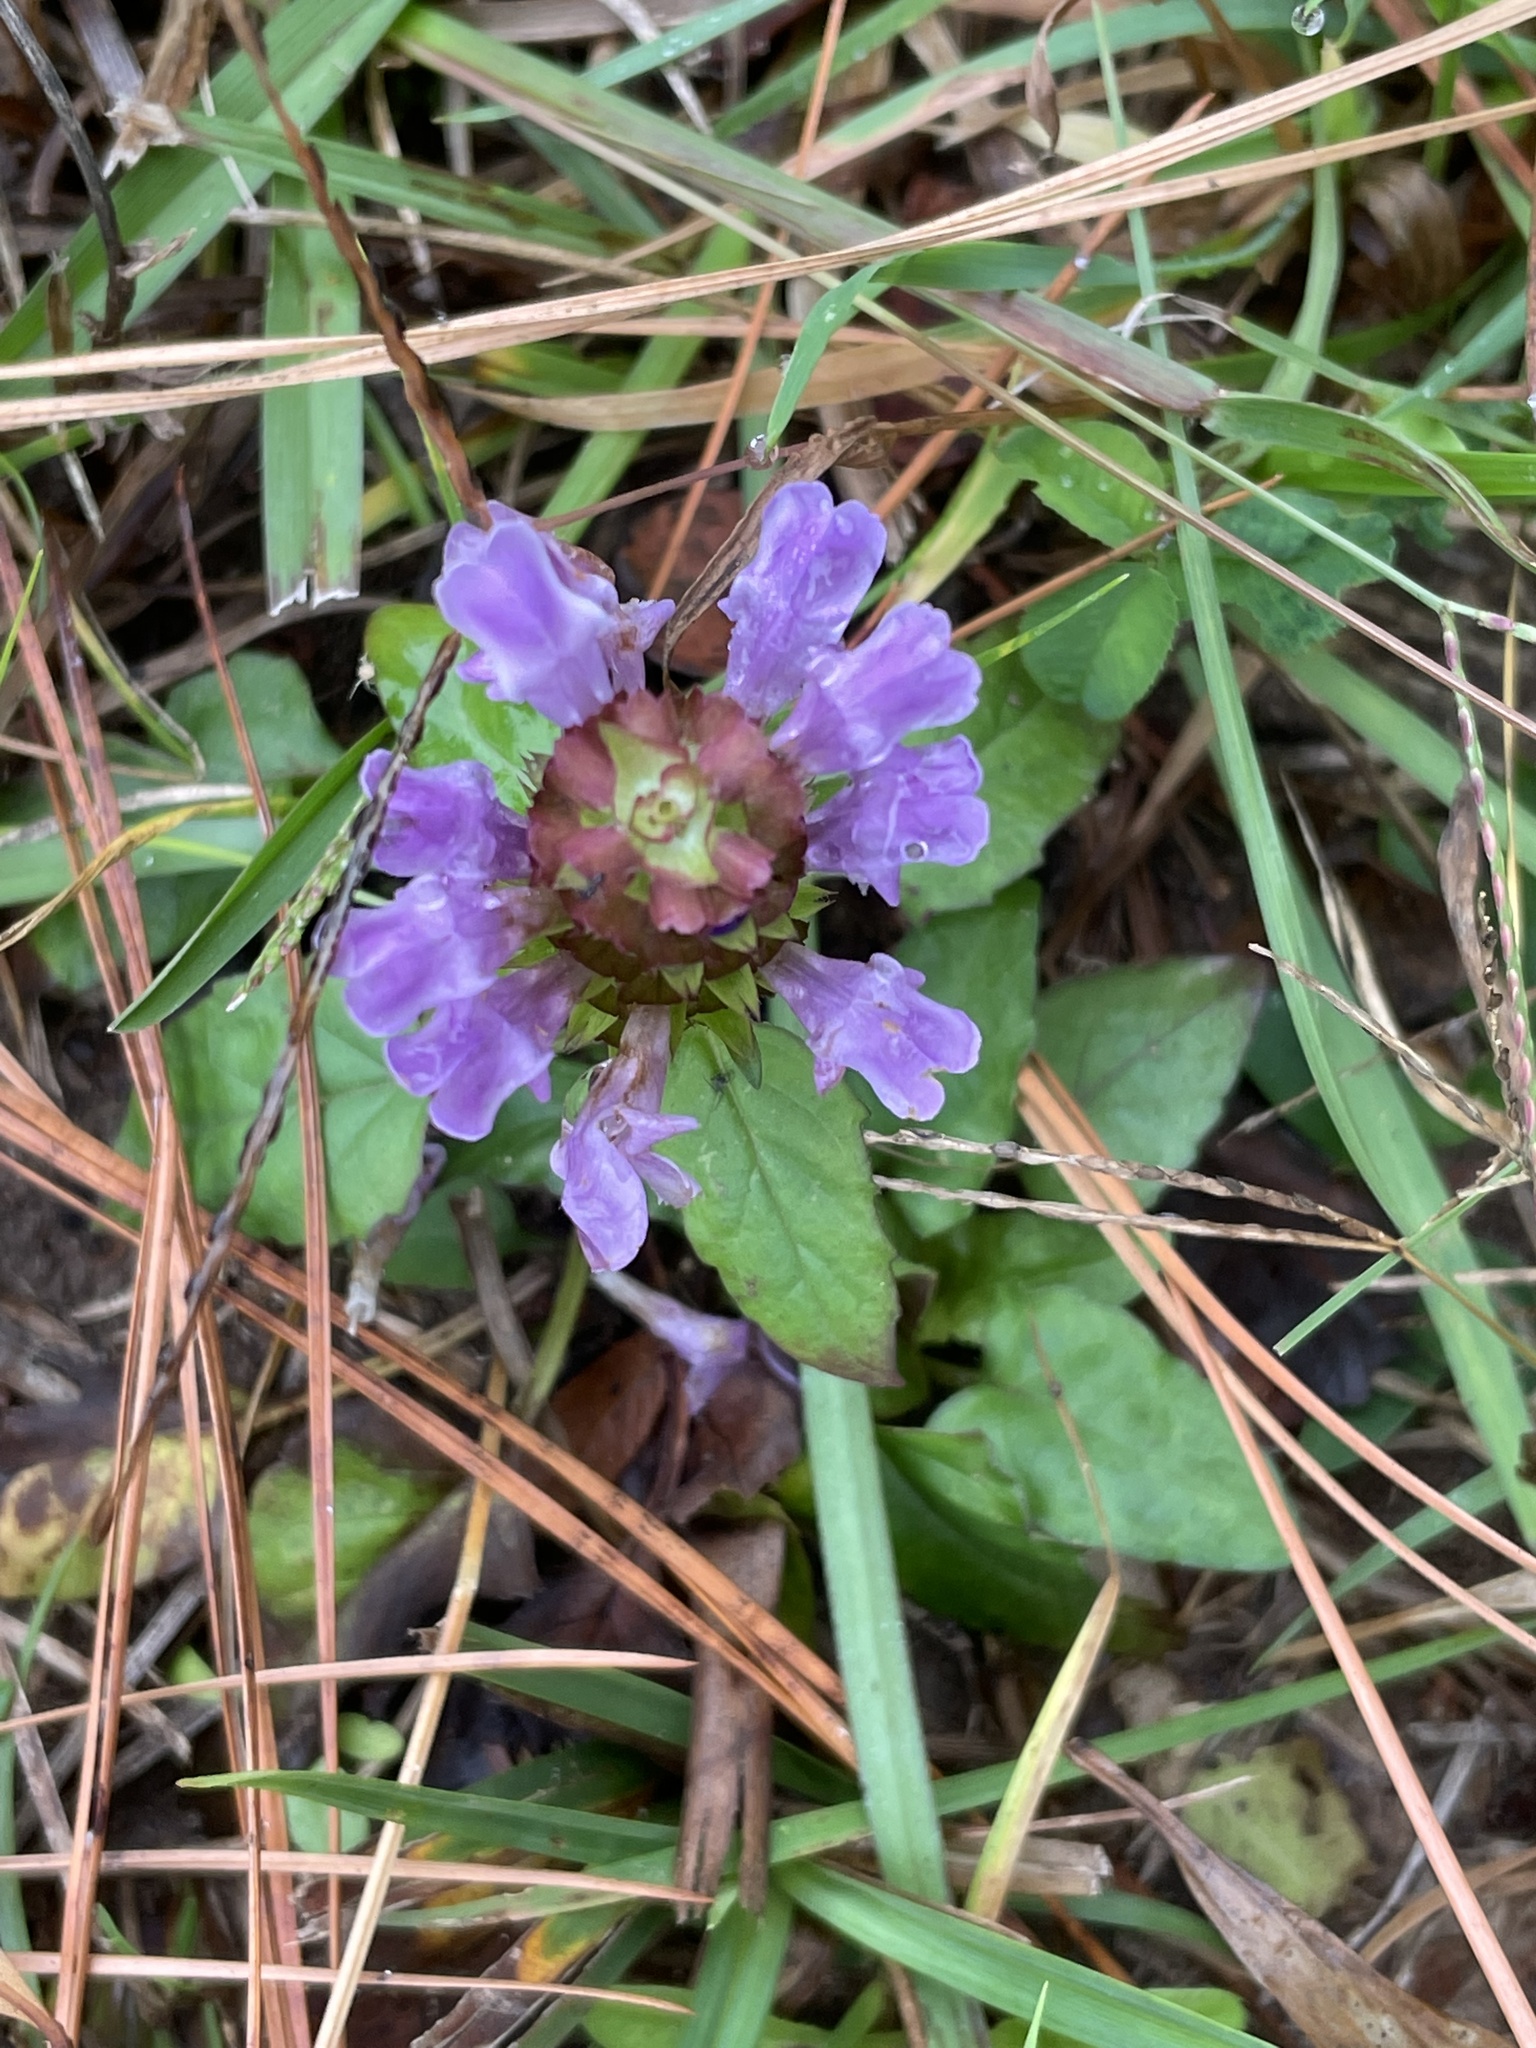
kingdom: Plantae
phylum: Tracheophyta
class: Magnoliopsida
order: Lamiales
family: Lamiaceae
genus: Prunella
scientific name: Prunella vulgaris
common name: Heal-all
